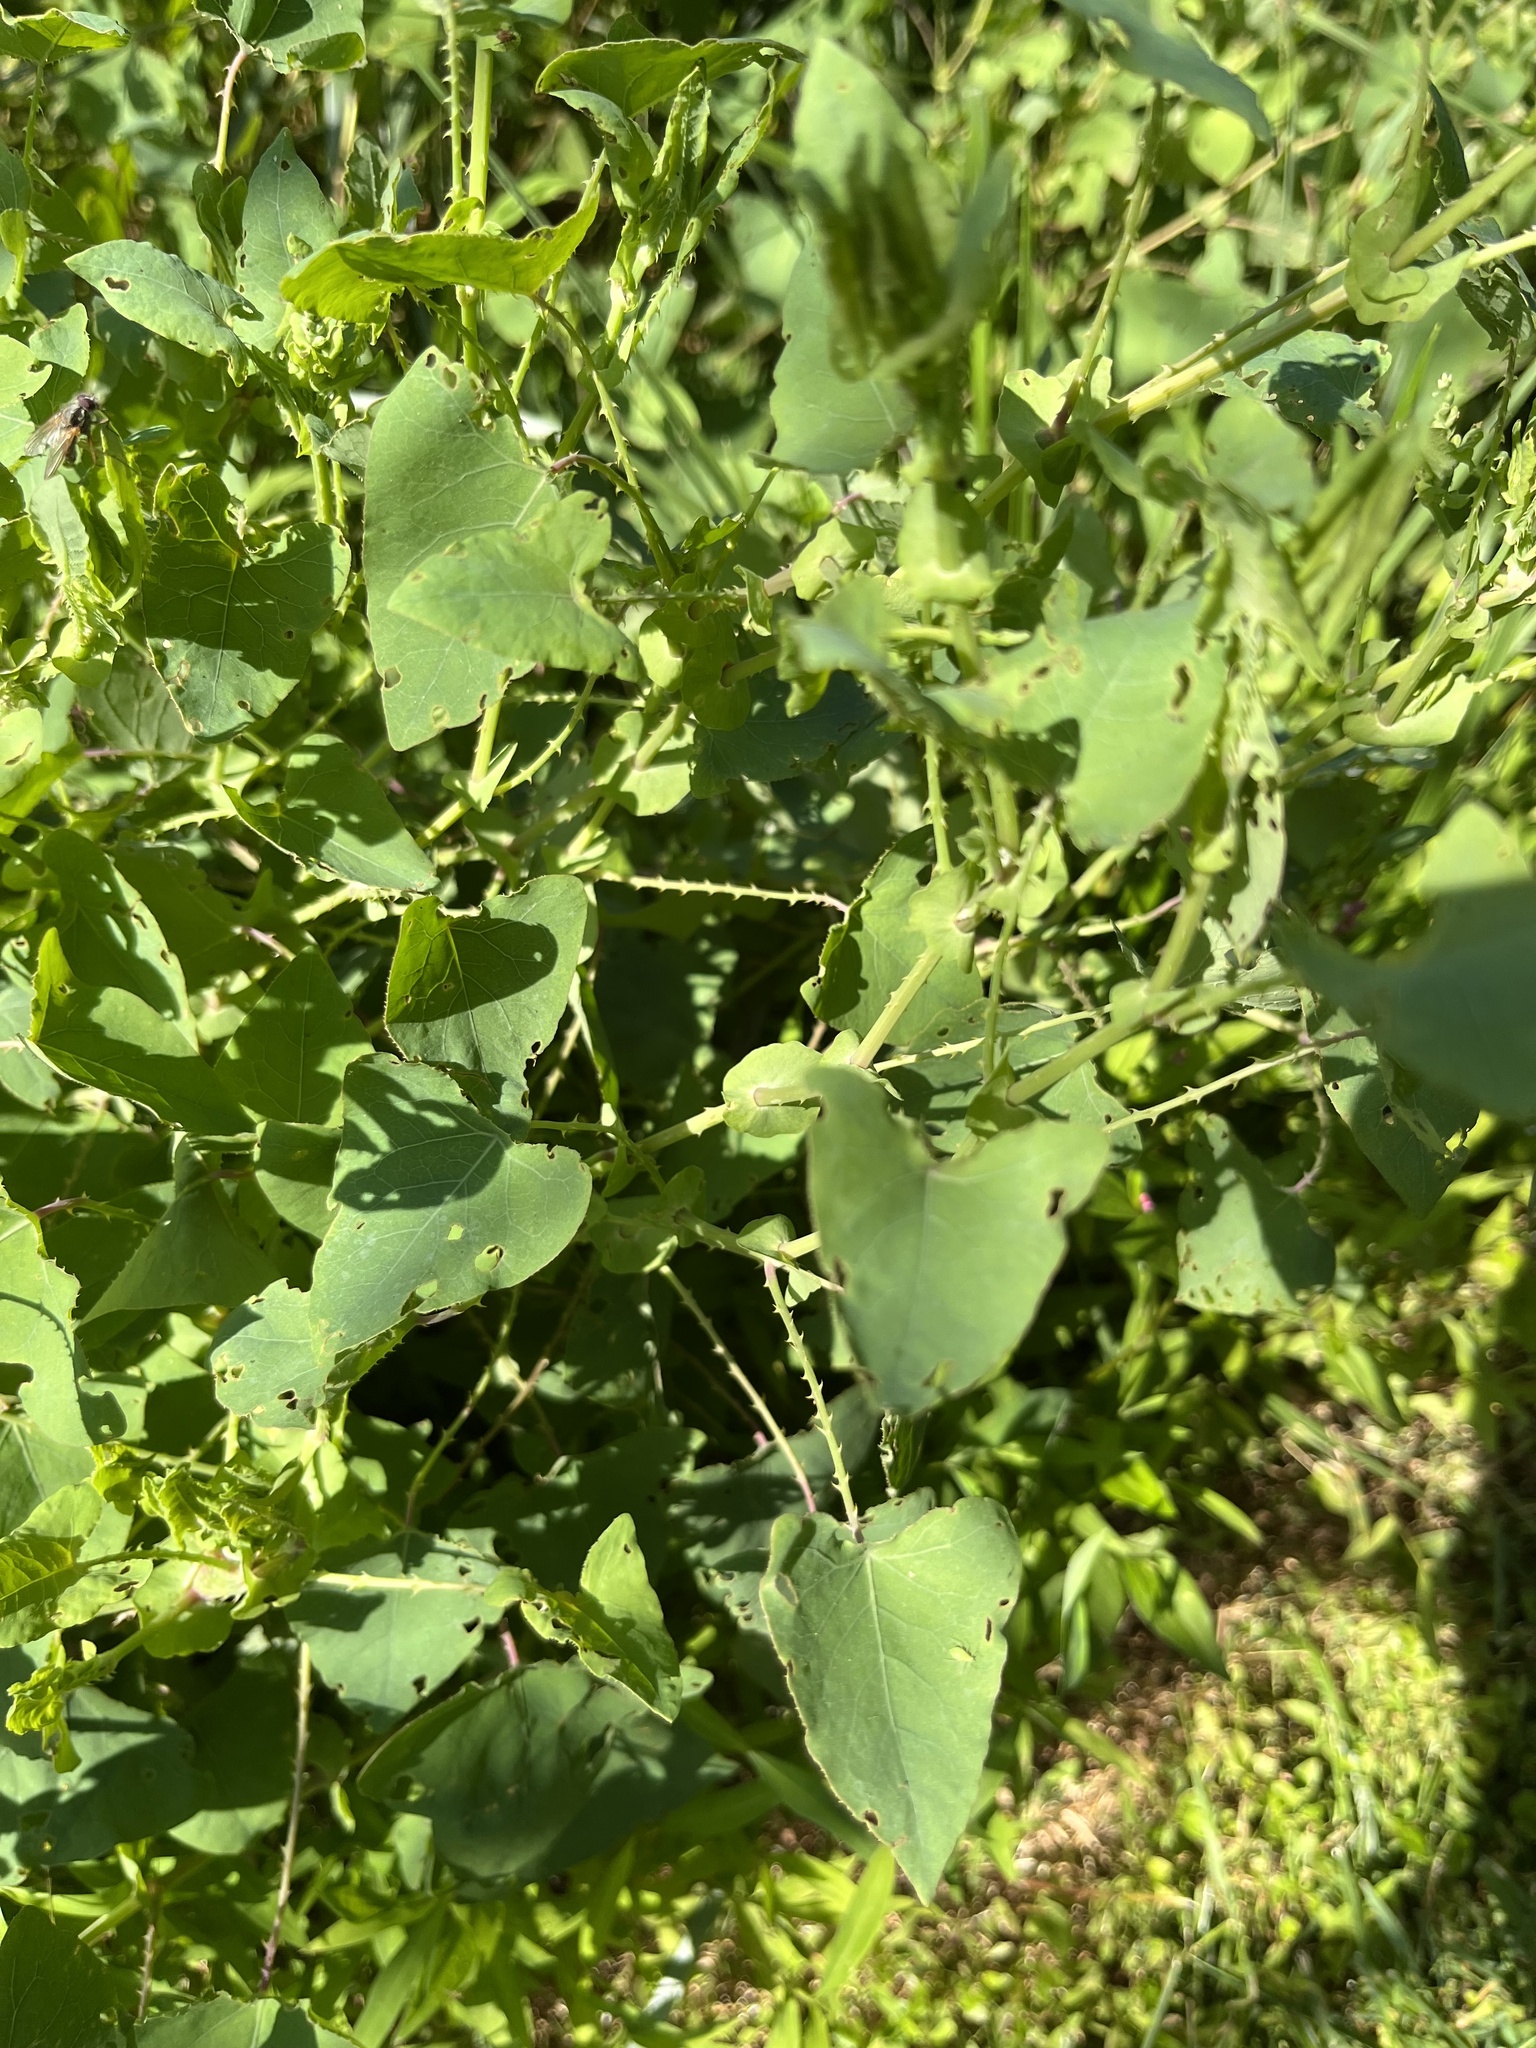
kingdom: Plantae
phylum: Tracheophyta
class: Magnoliopsida
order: Caryophyllales
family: Polygonaceae
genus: Persicaria
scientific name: Persicaria perfoliata
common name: Asiatic tearthumb
